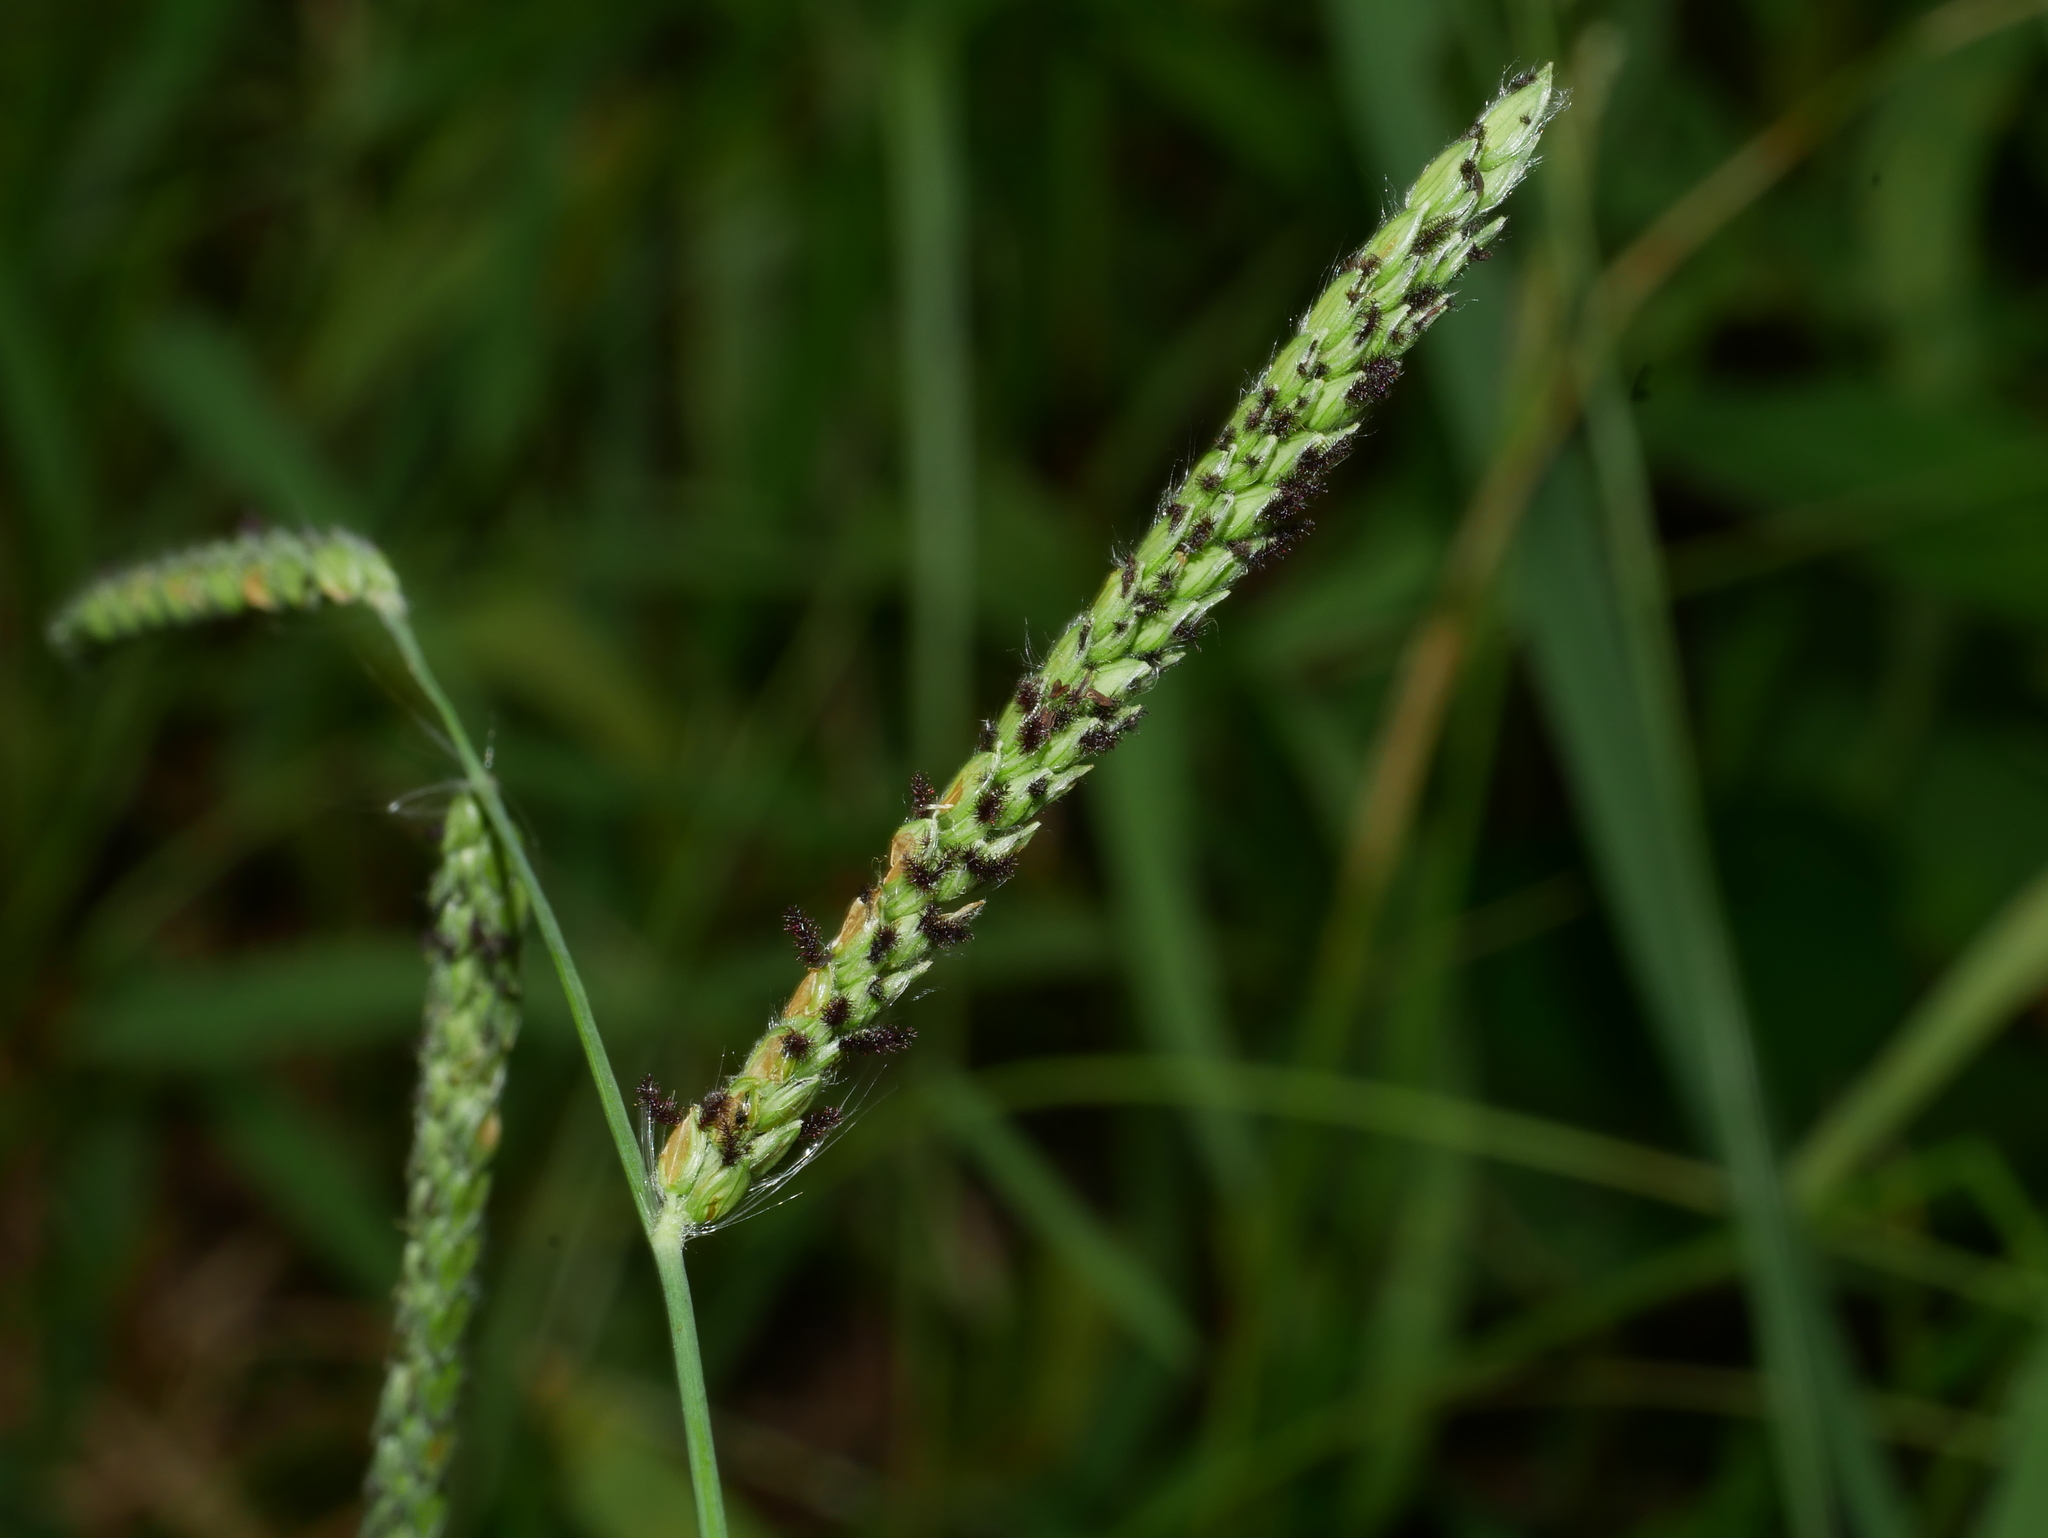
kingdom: Plantae
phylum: Tracheophyta
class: Liliopsida
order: Poales
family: Poaceae
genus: Paspalum
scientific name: Paspalum dilatatum
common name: Dallisgrass
